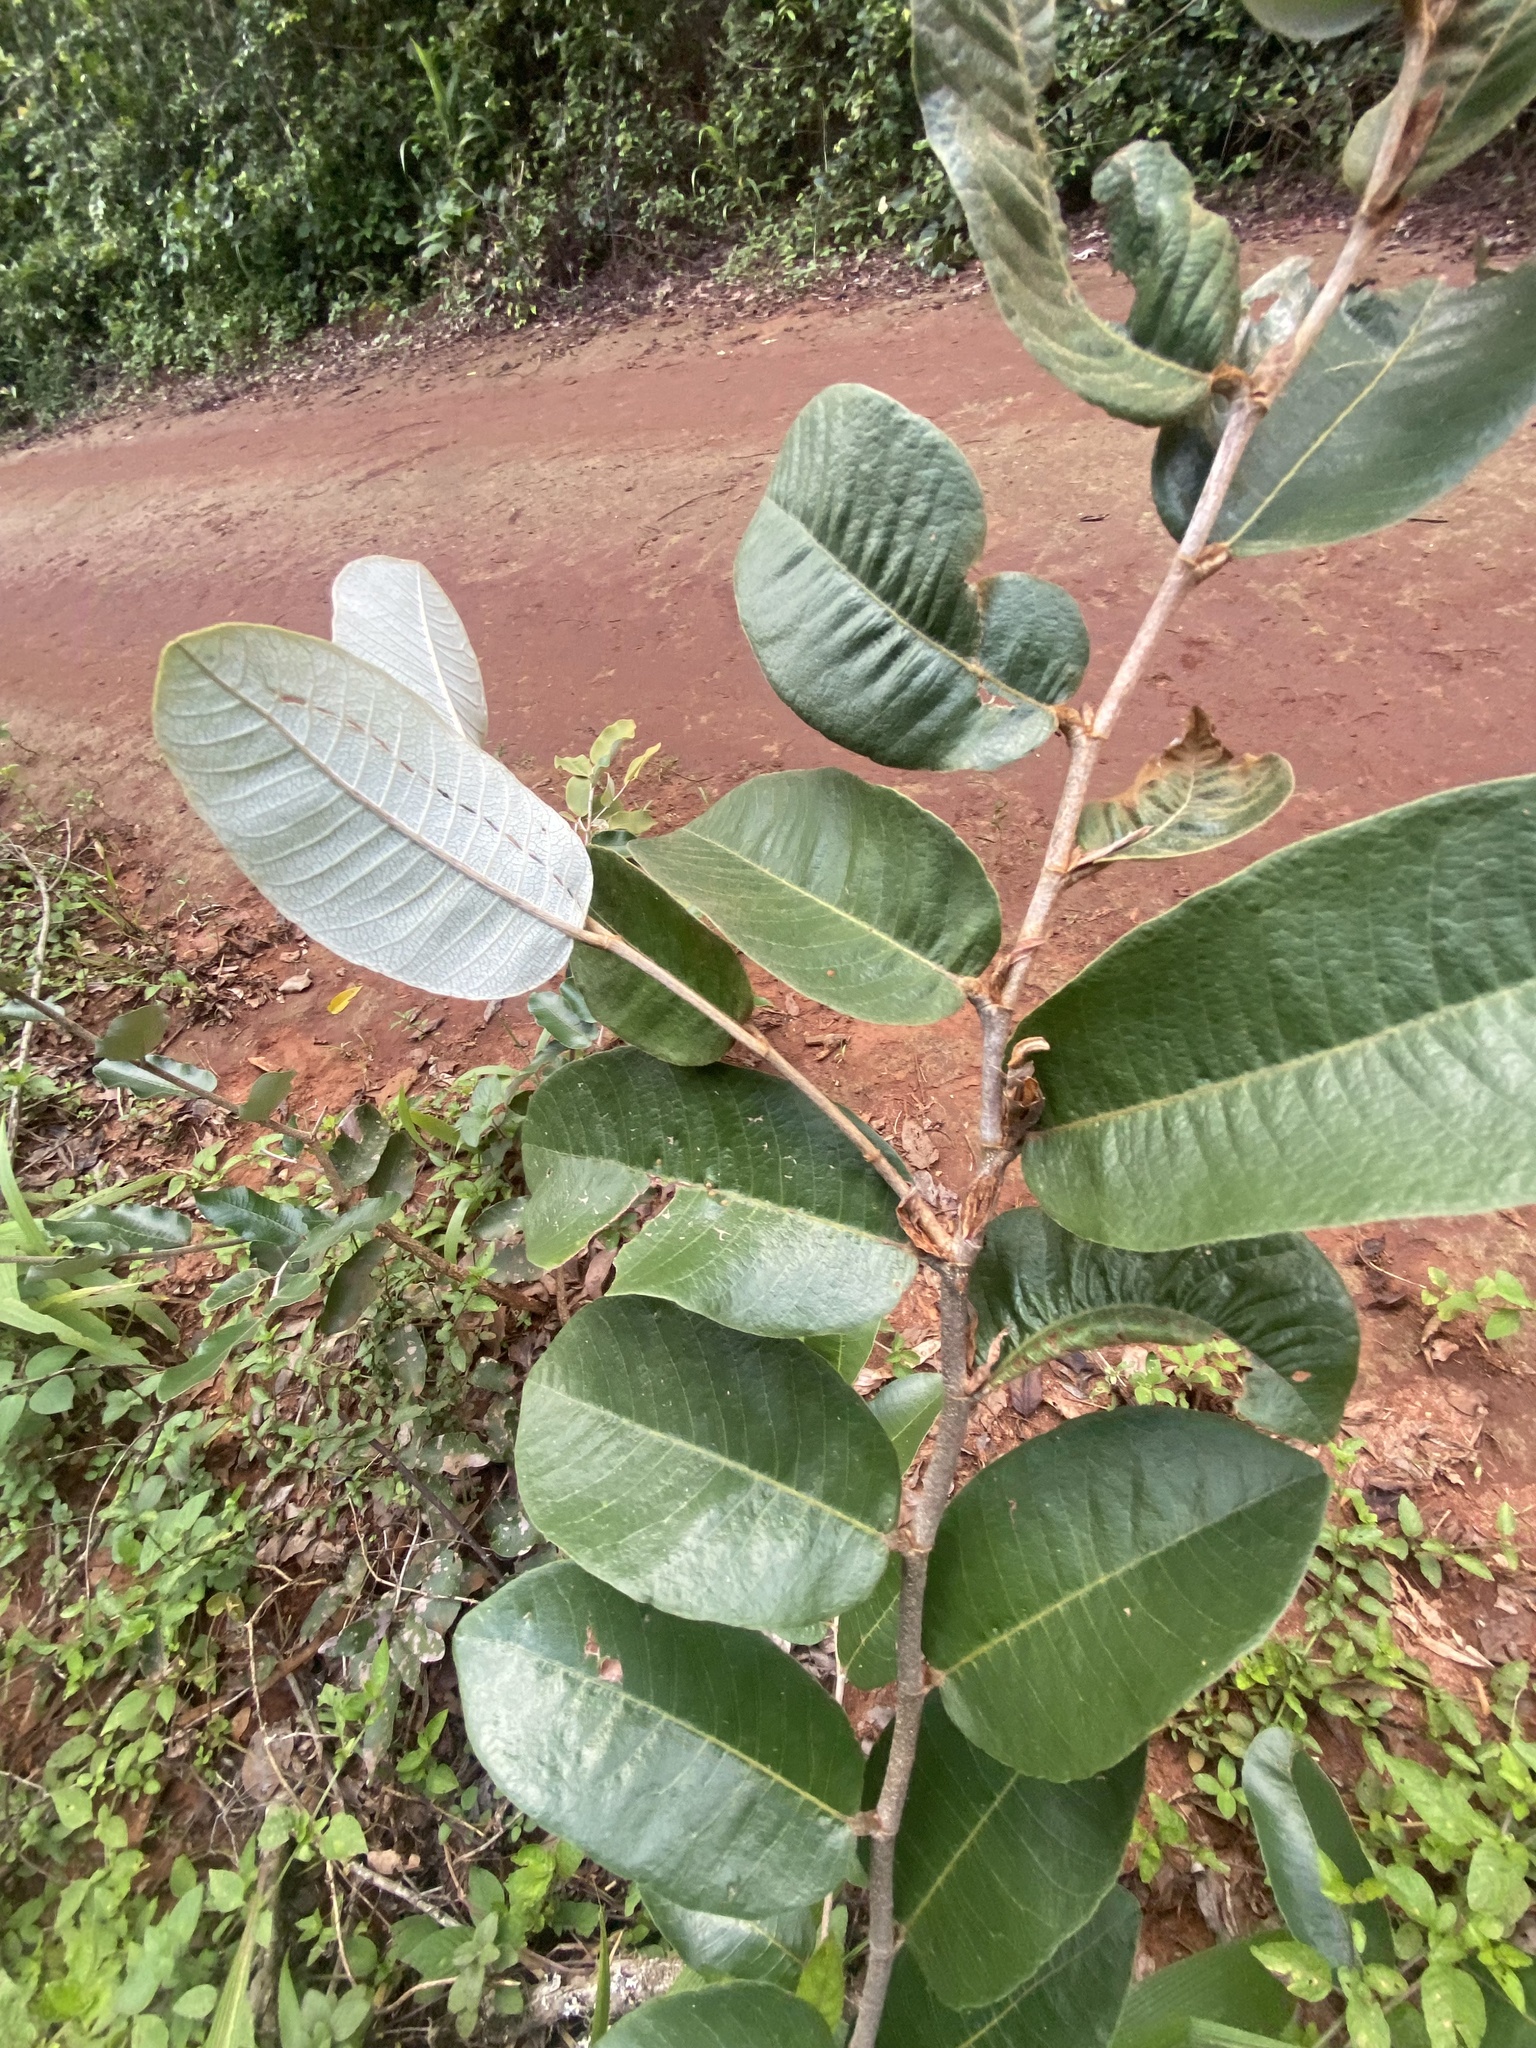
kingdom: Plantae
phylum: Tracheophyta
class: Magnoliopsida
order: Malpighiales
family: Chrysobalanaceae
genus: Parinari
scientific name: Parinari curatellifolia
